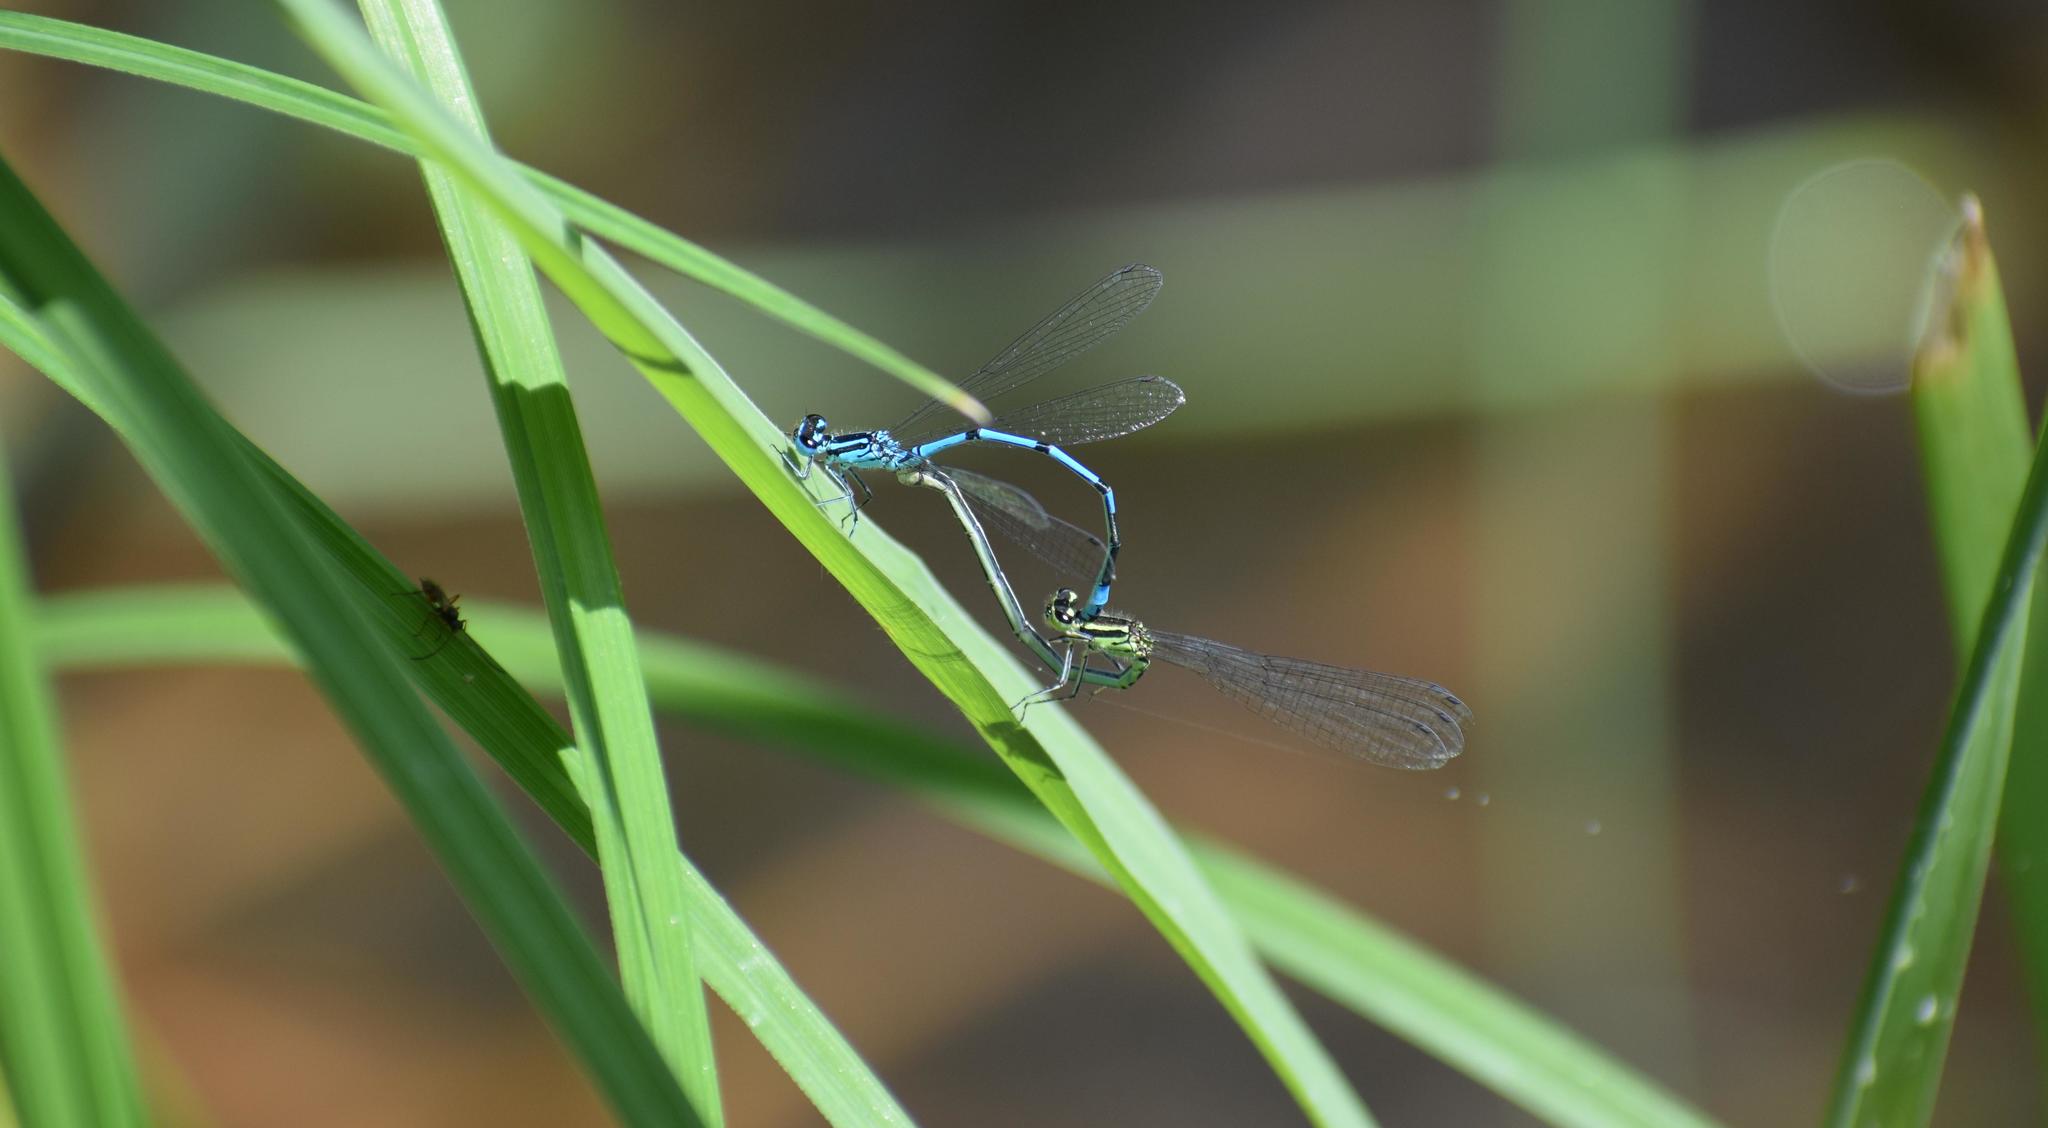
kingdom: Animalia
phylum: Arthropoda
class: Insecta
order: Odonata
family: Coenagrionidae
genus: Coenagrion
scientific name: Coenagrion puella
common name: Azure damselfly
